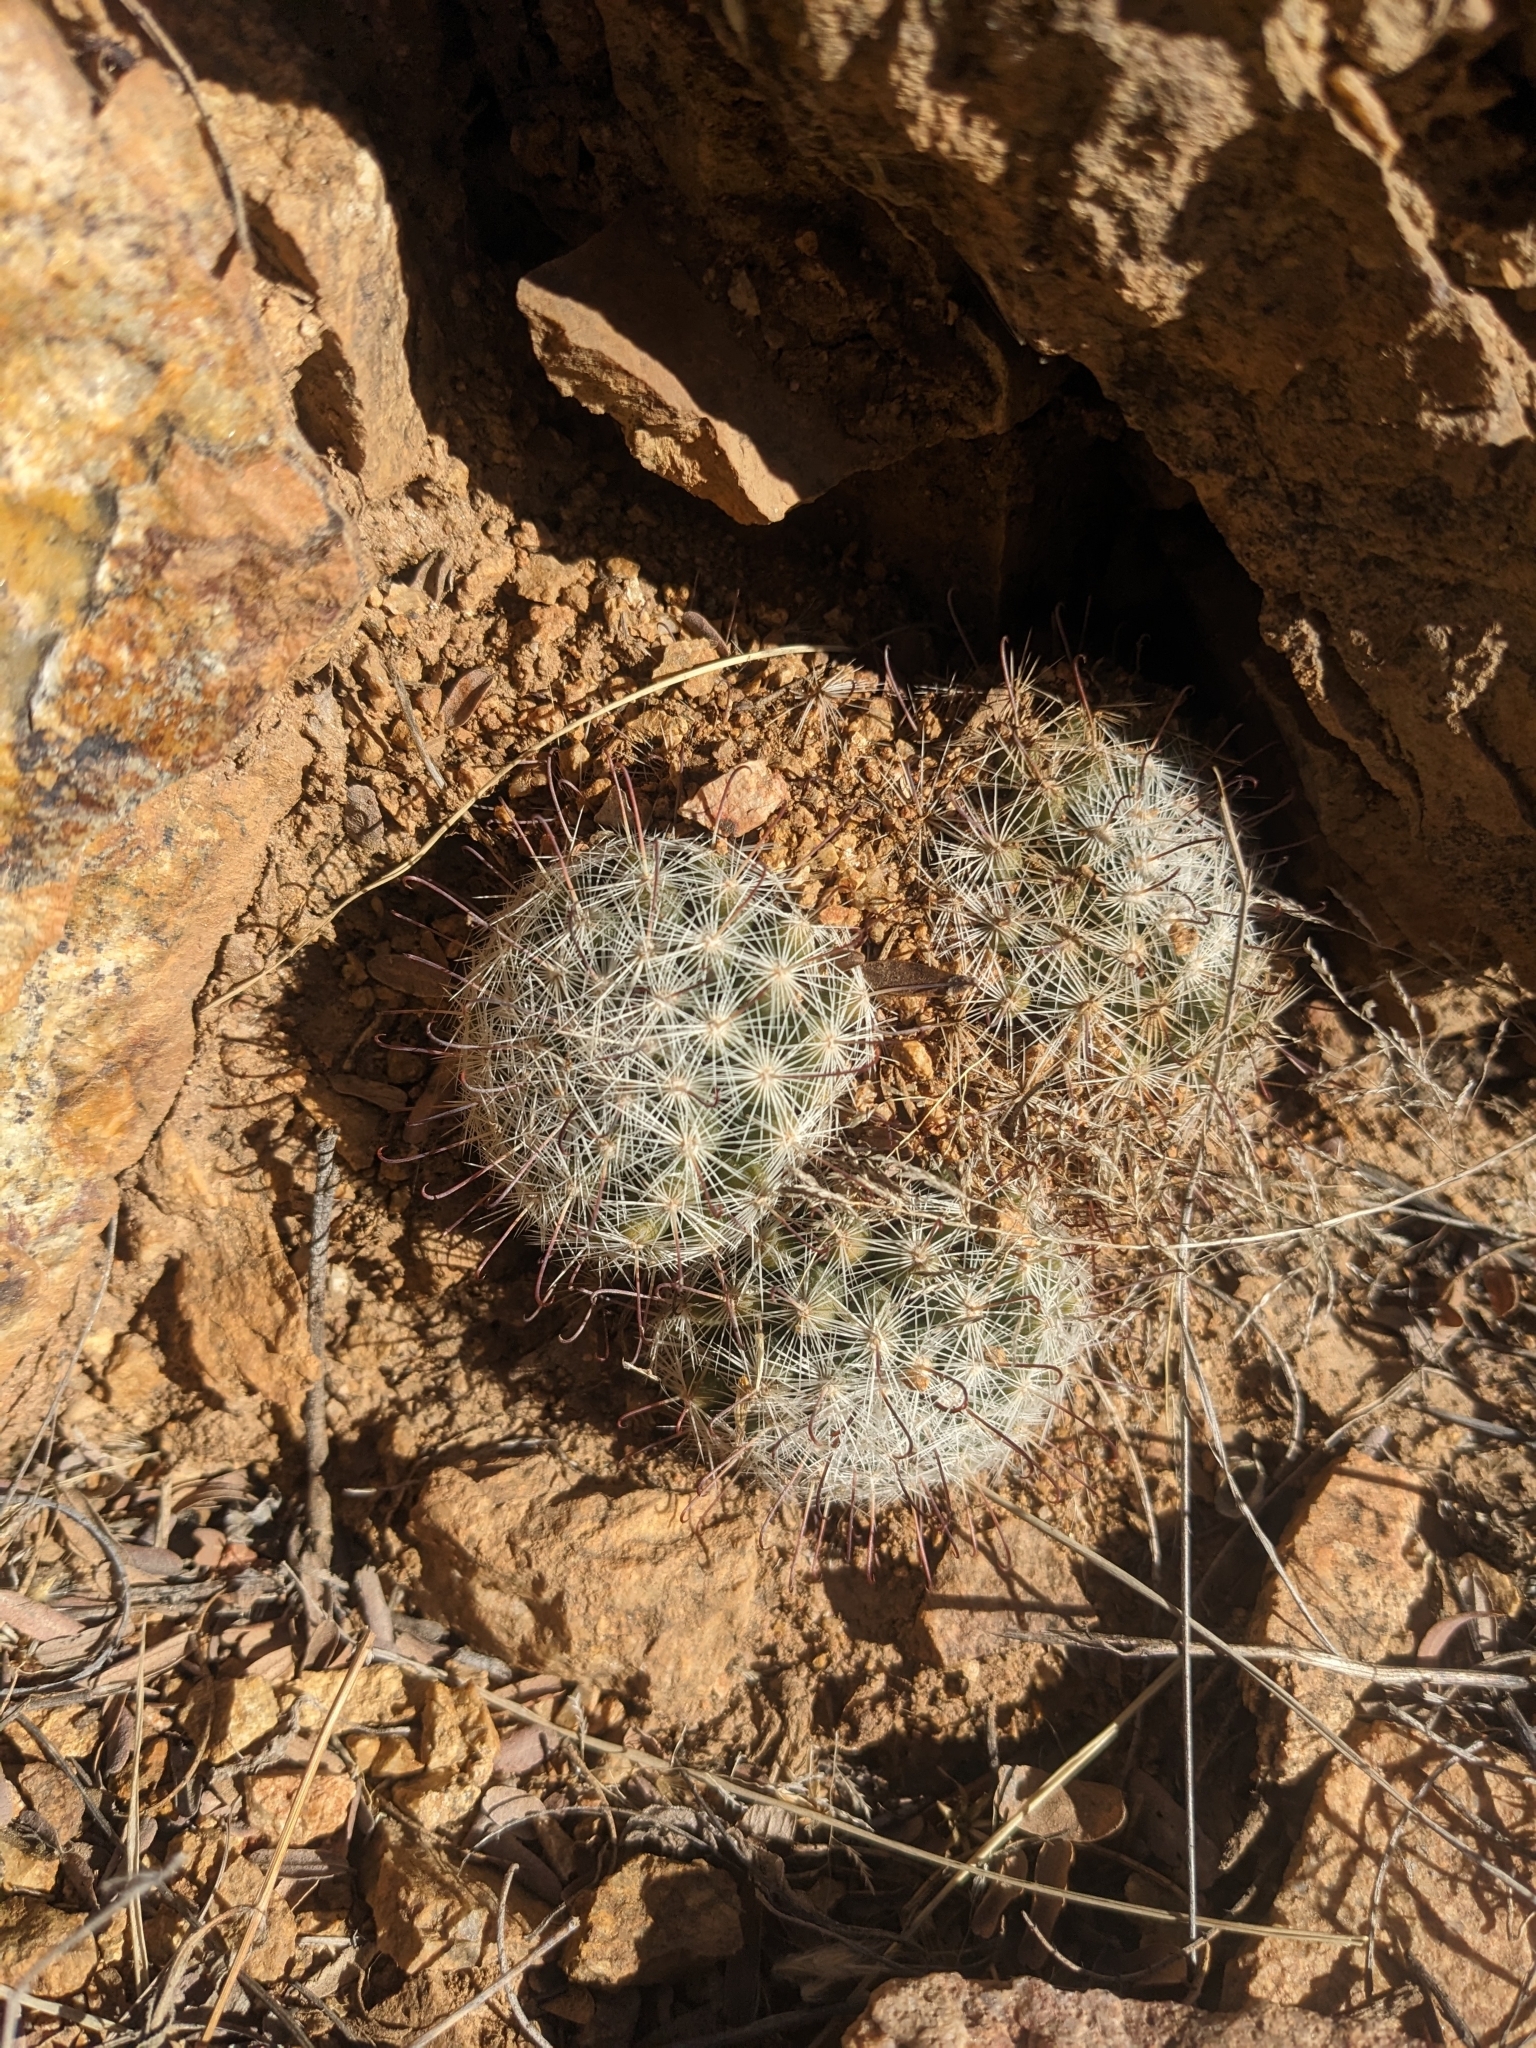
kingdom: Plantae
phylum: Tracheophyta
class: Magnoliopsida
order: Caryophyllales
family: Cactaceae
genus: Cochemiea
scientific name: Cochemiea grahamii
